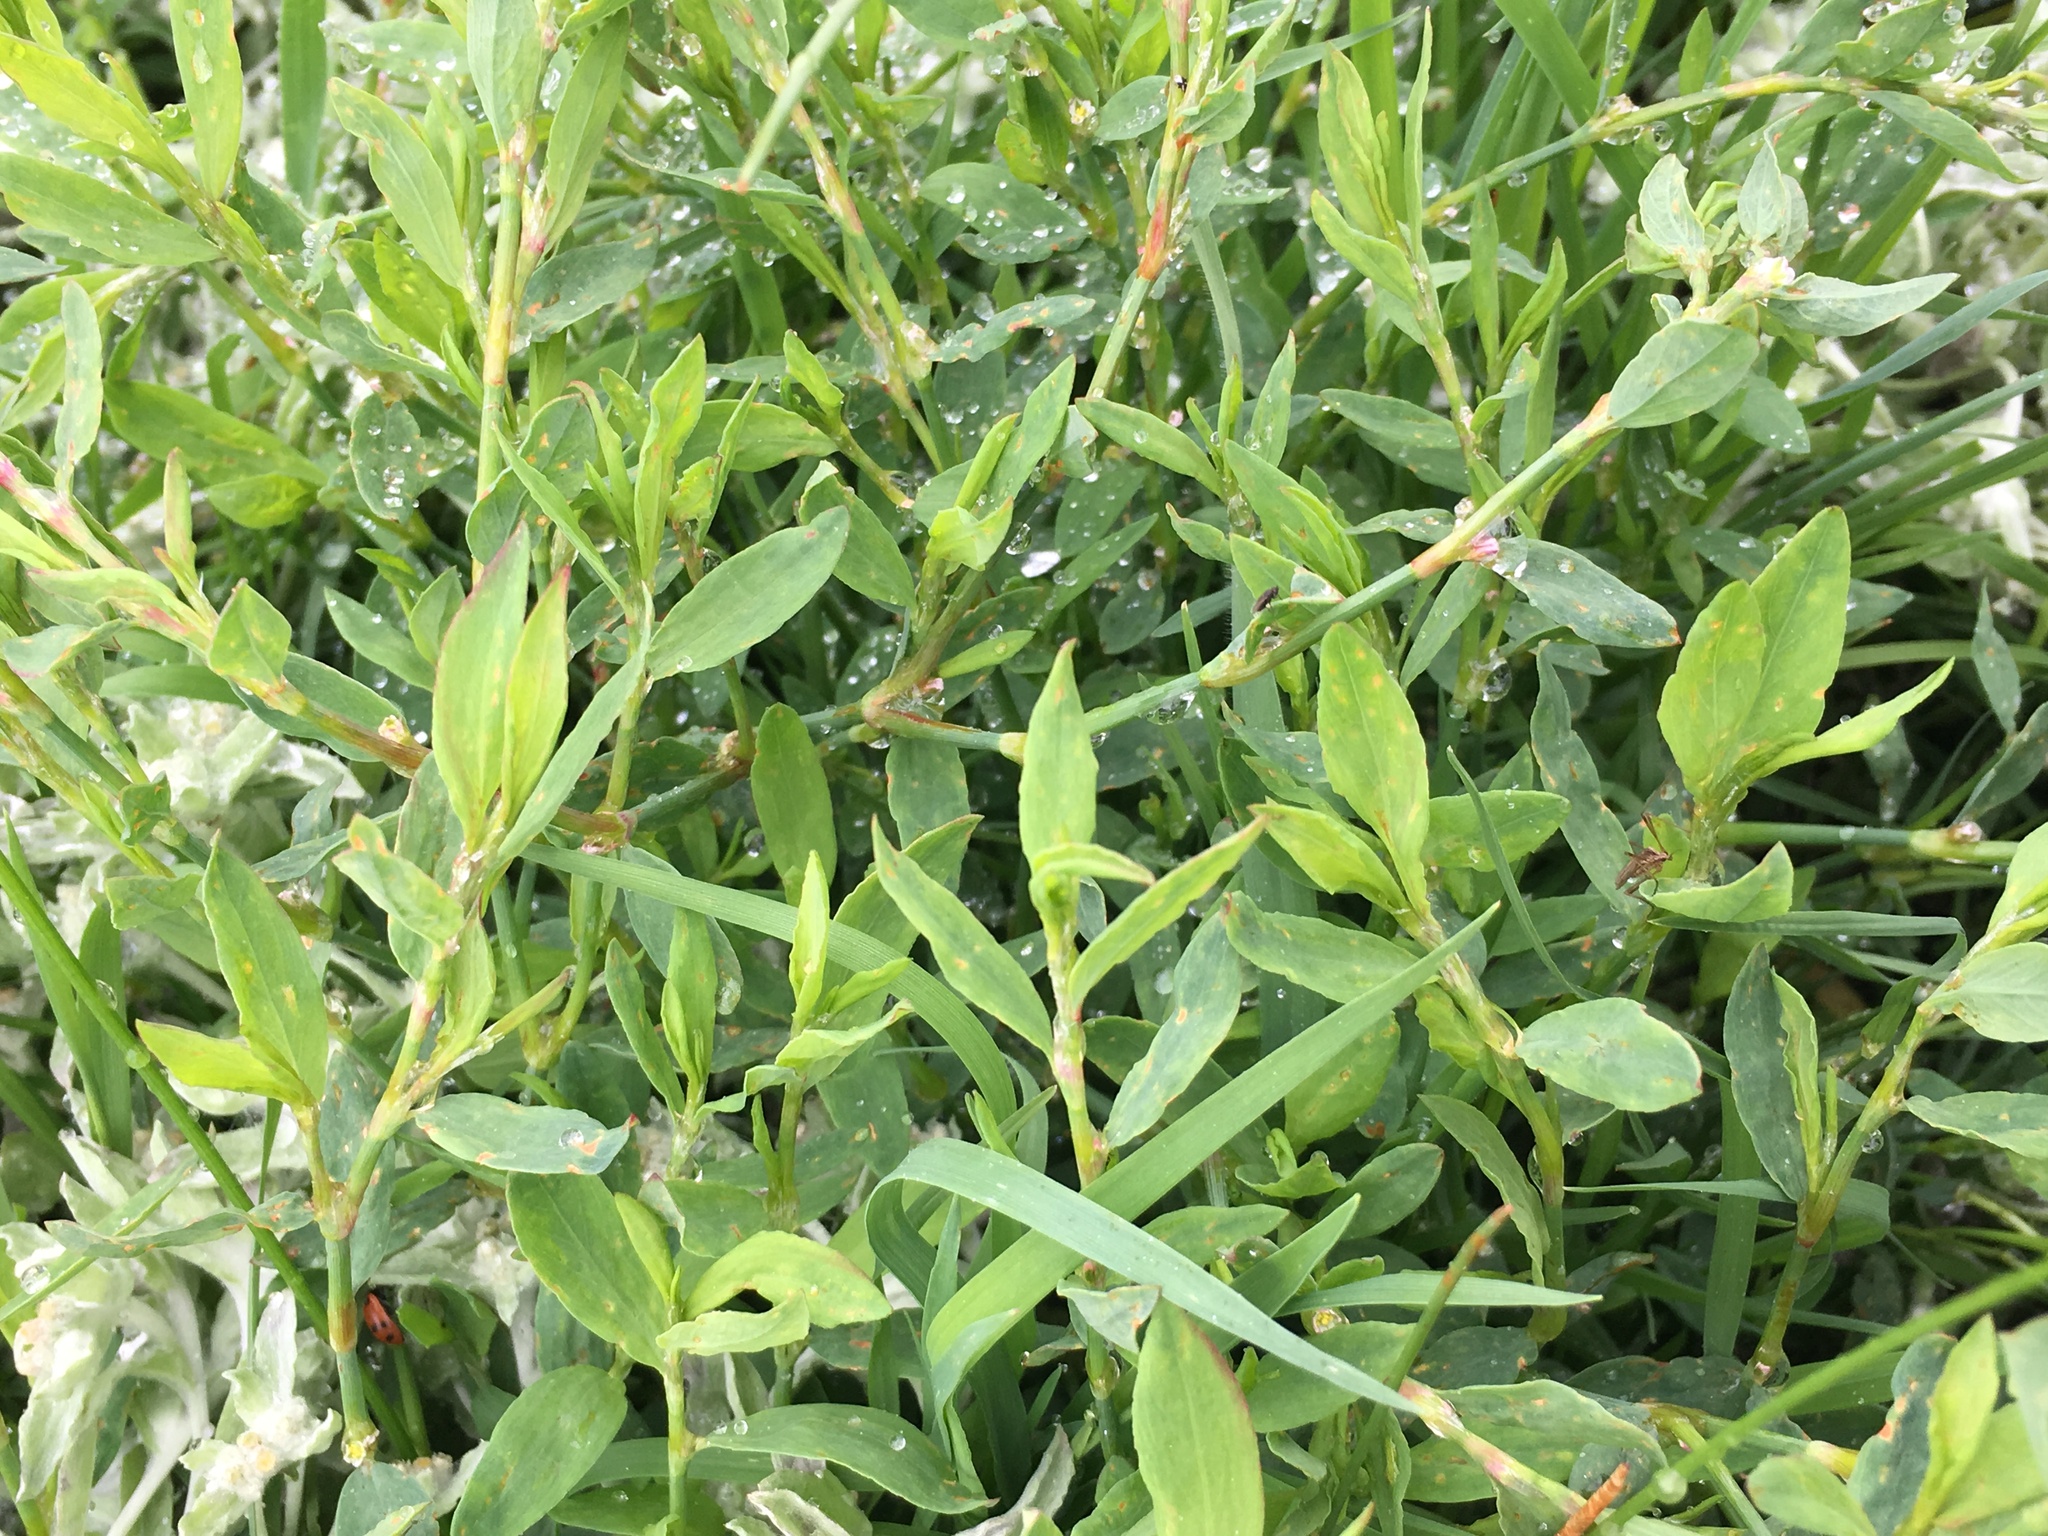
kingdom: Plantae
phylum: Tracheophyta
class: Magnoliopsida
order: Caryophyllales
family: Polygonaceae
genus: Polygonum
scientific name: Polygonum aviculare
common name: Prostrate knotweed
